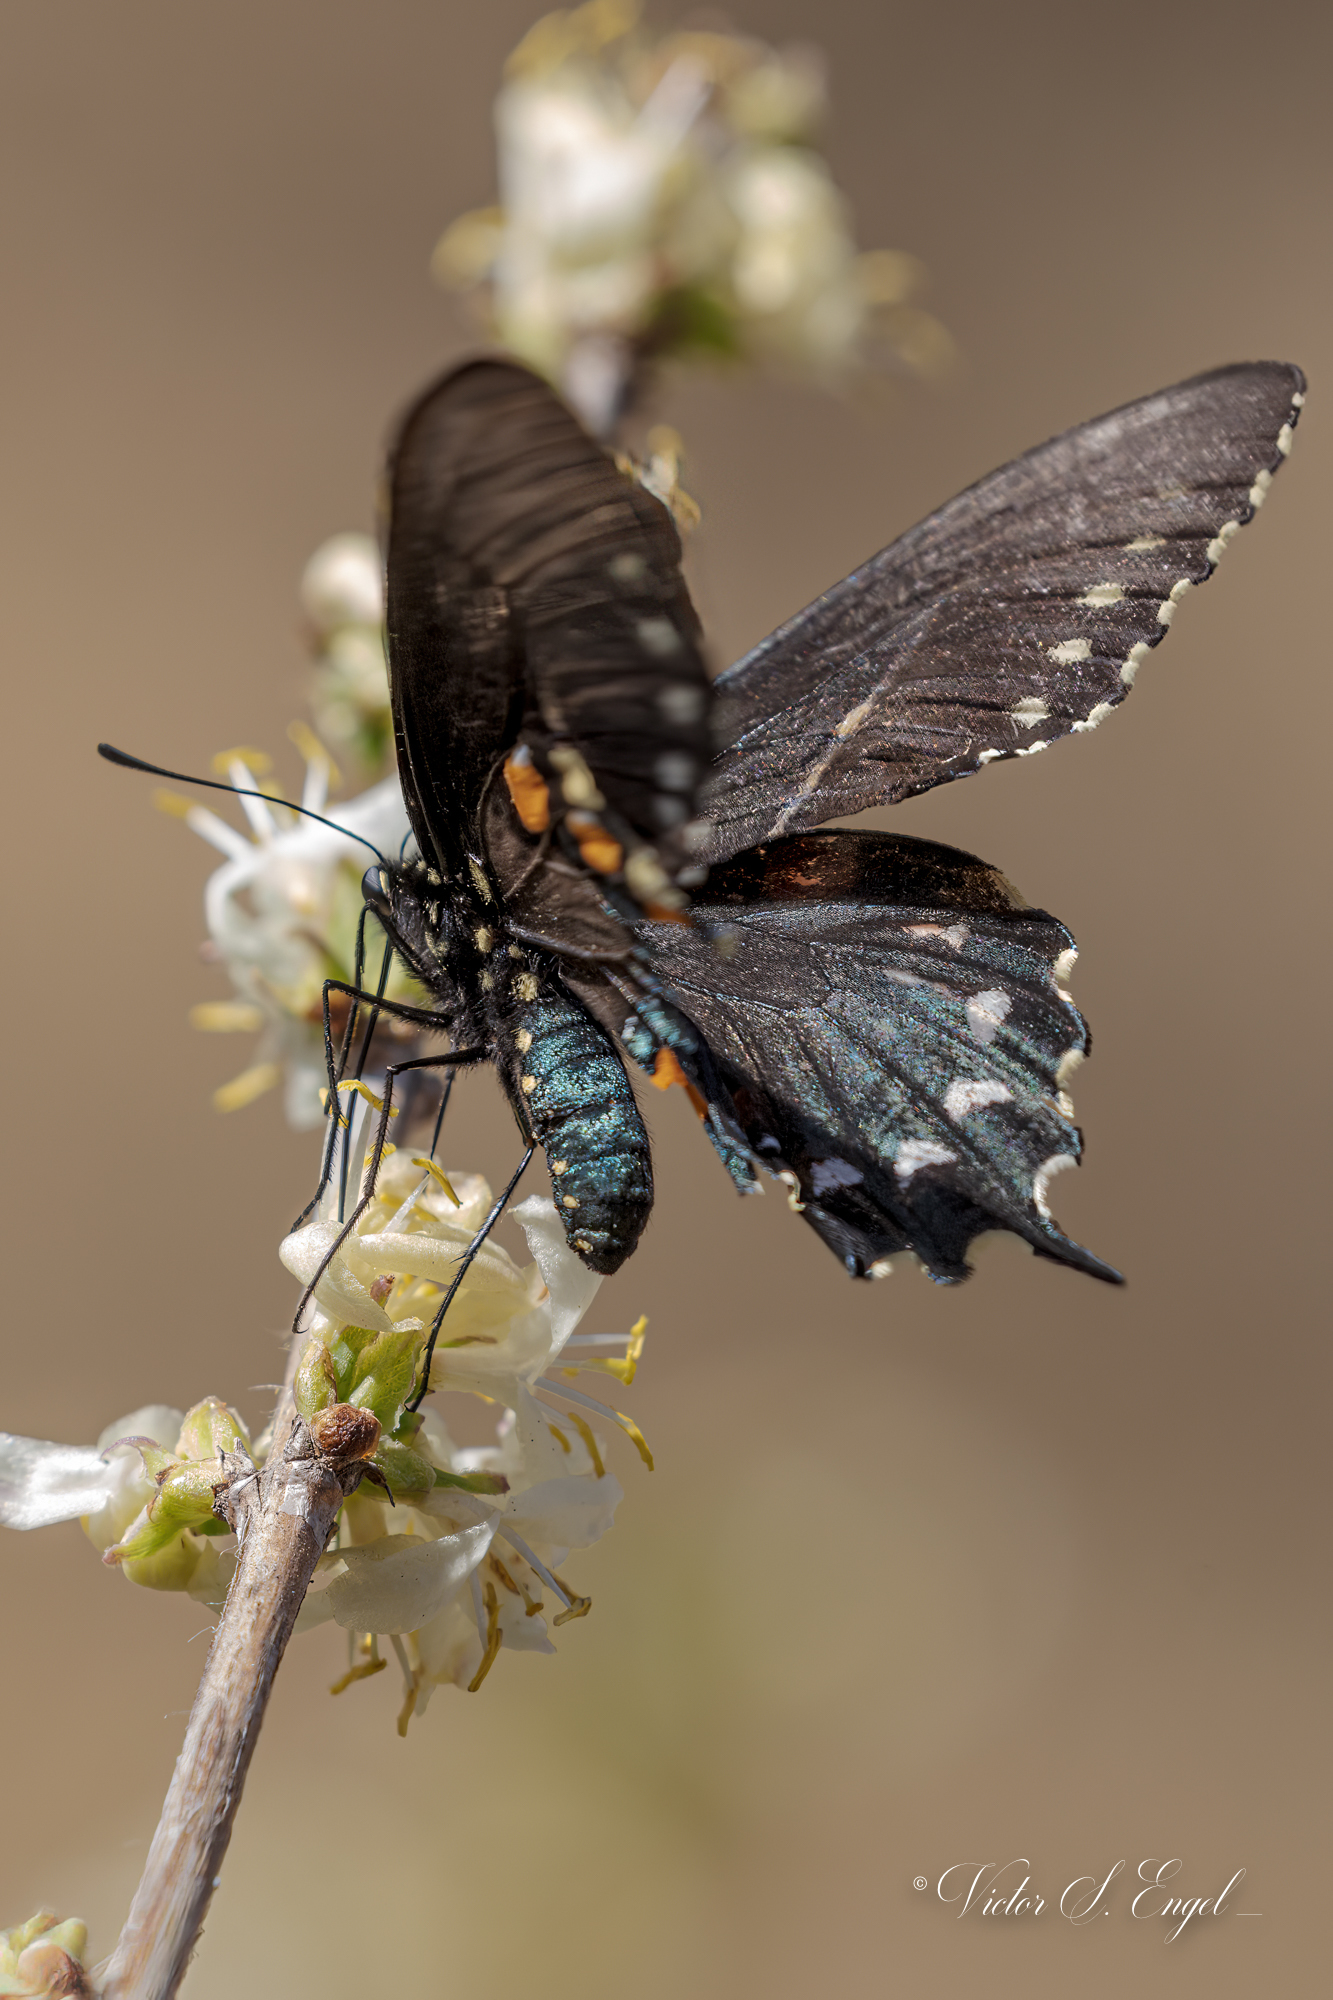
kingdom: Animalia
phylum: Arthropoda
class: Insecta
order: Lepidoptera
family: Papilionidae
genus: Battus
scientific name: Battus philenor
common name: Pipevine swallowtail
